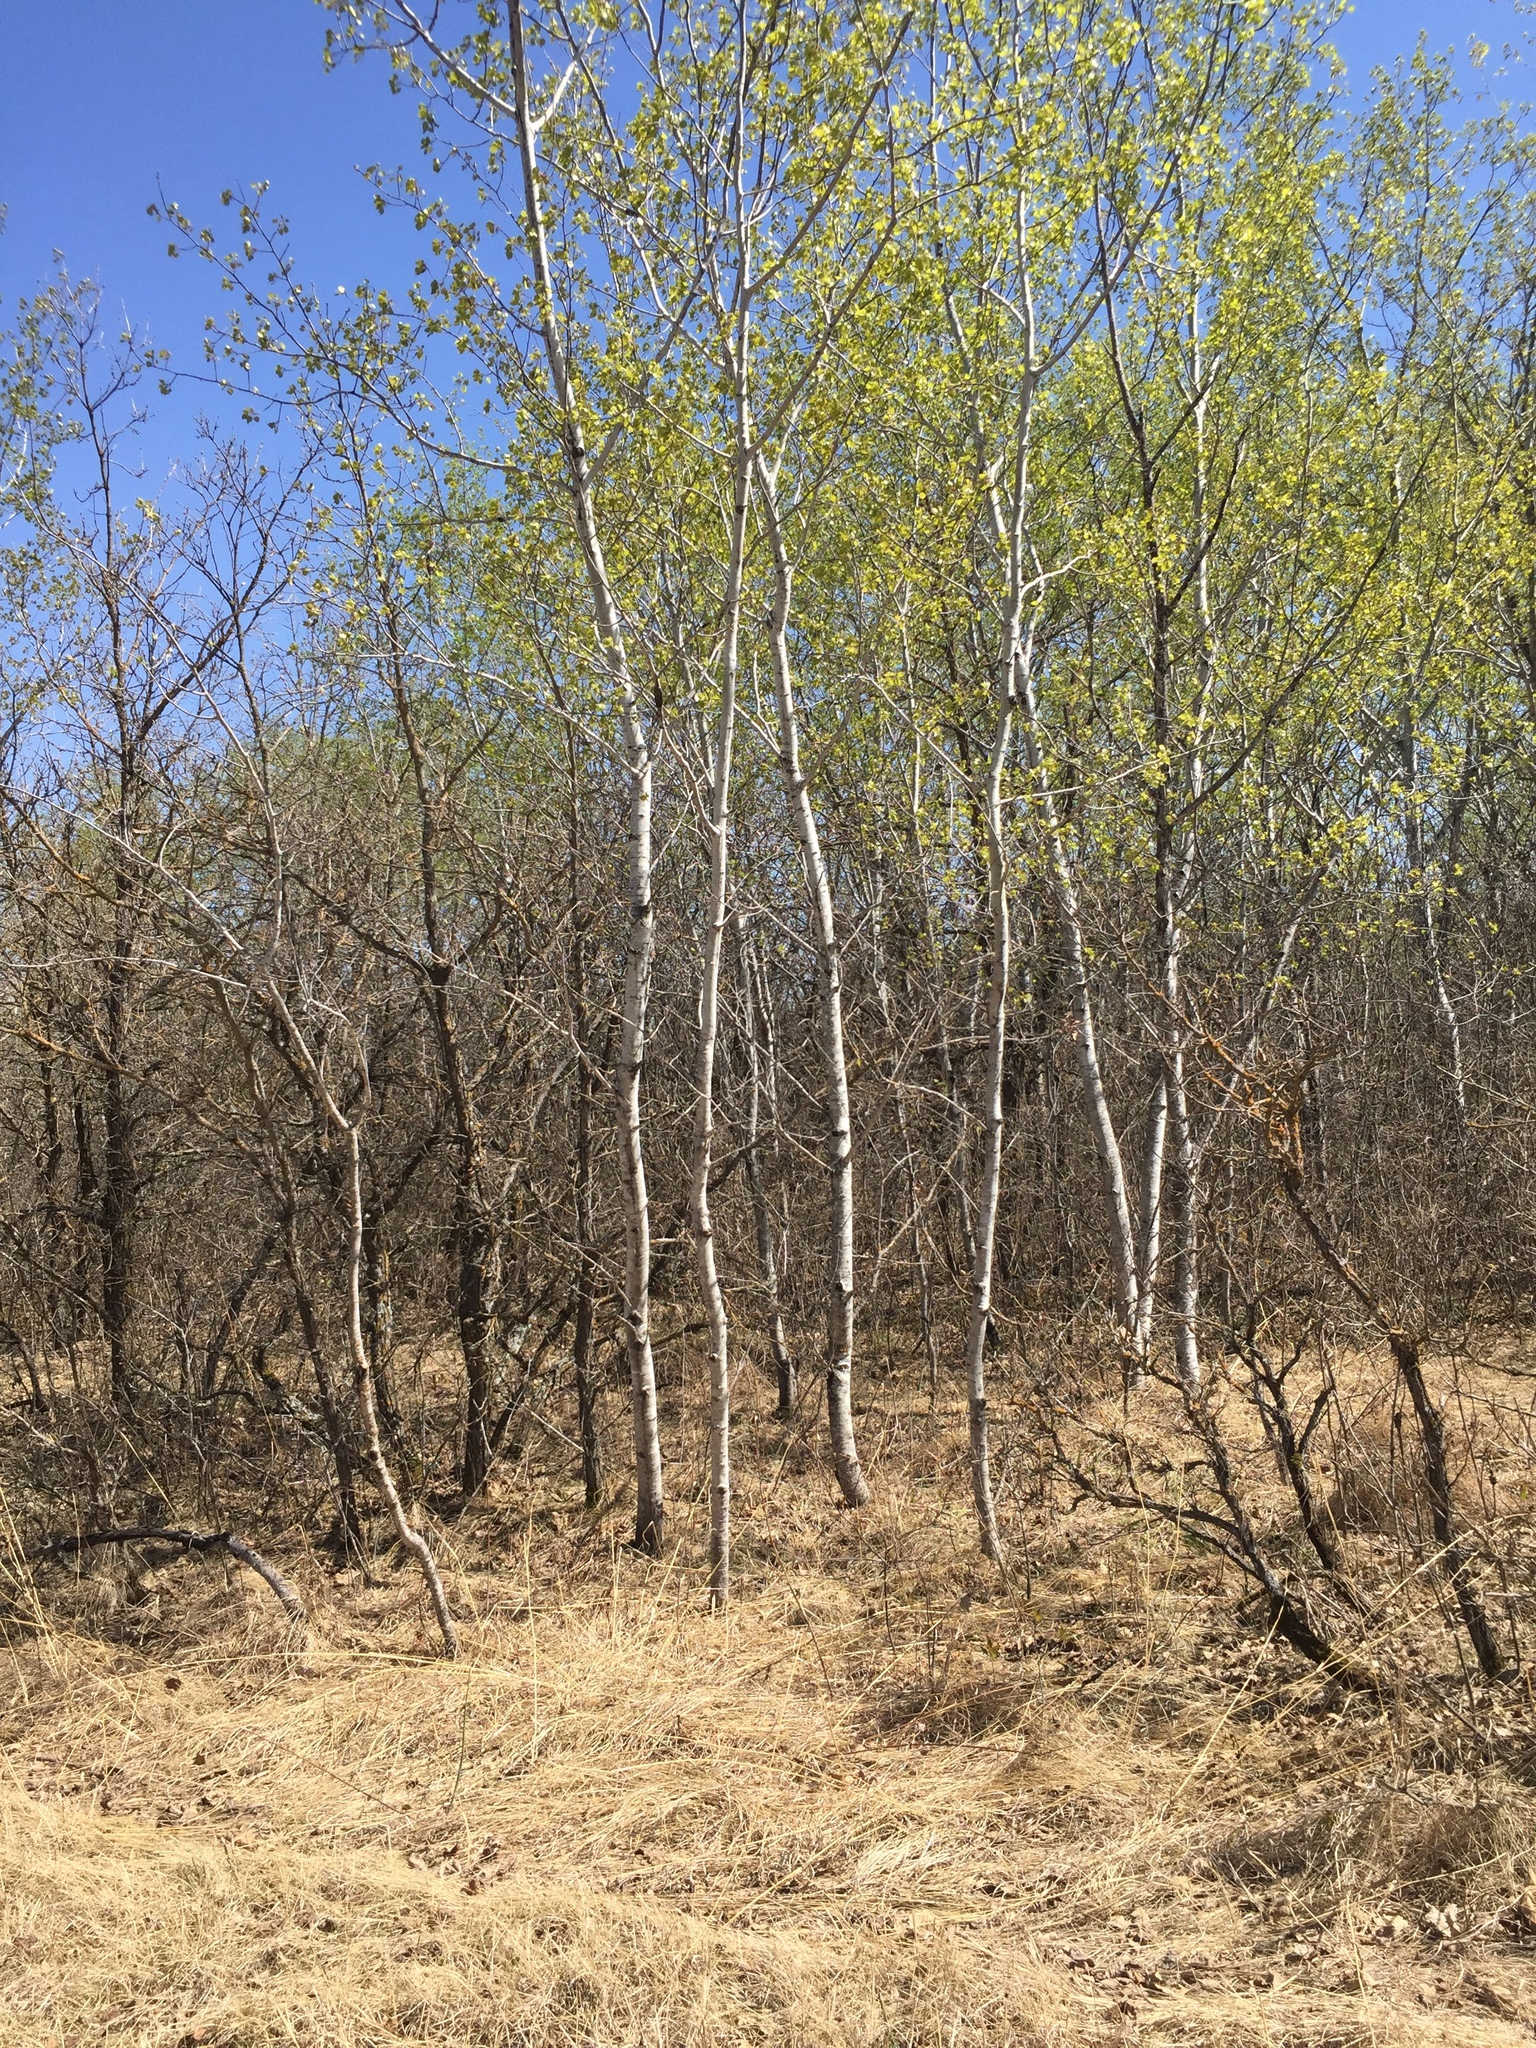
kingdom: Plantae
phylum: Tracheophyta
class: Magnoliopsida
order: Malpighiales
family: Salicaceae
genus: Populus
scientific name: Populus tremuloides
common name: Quaking aspen
